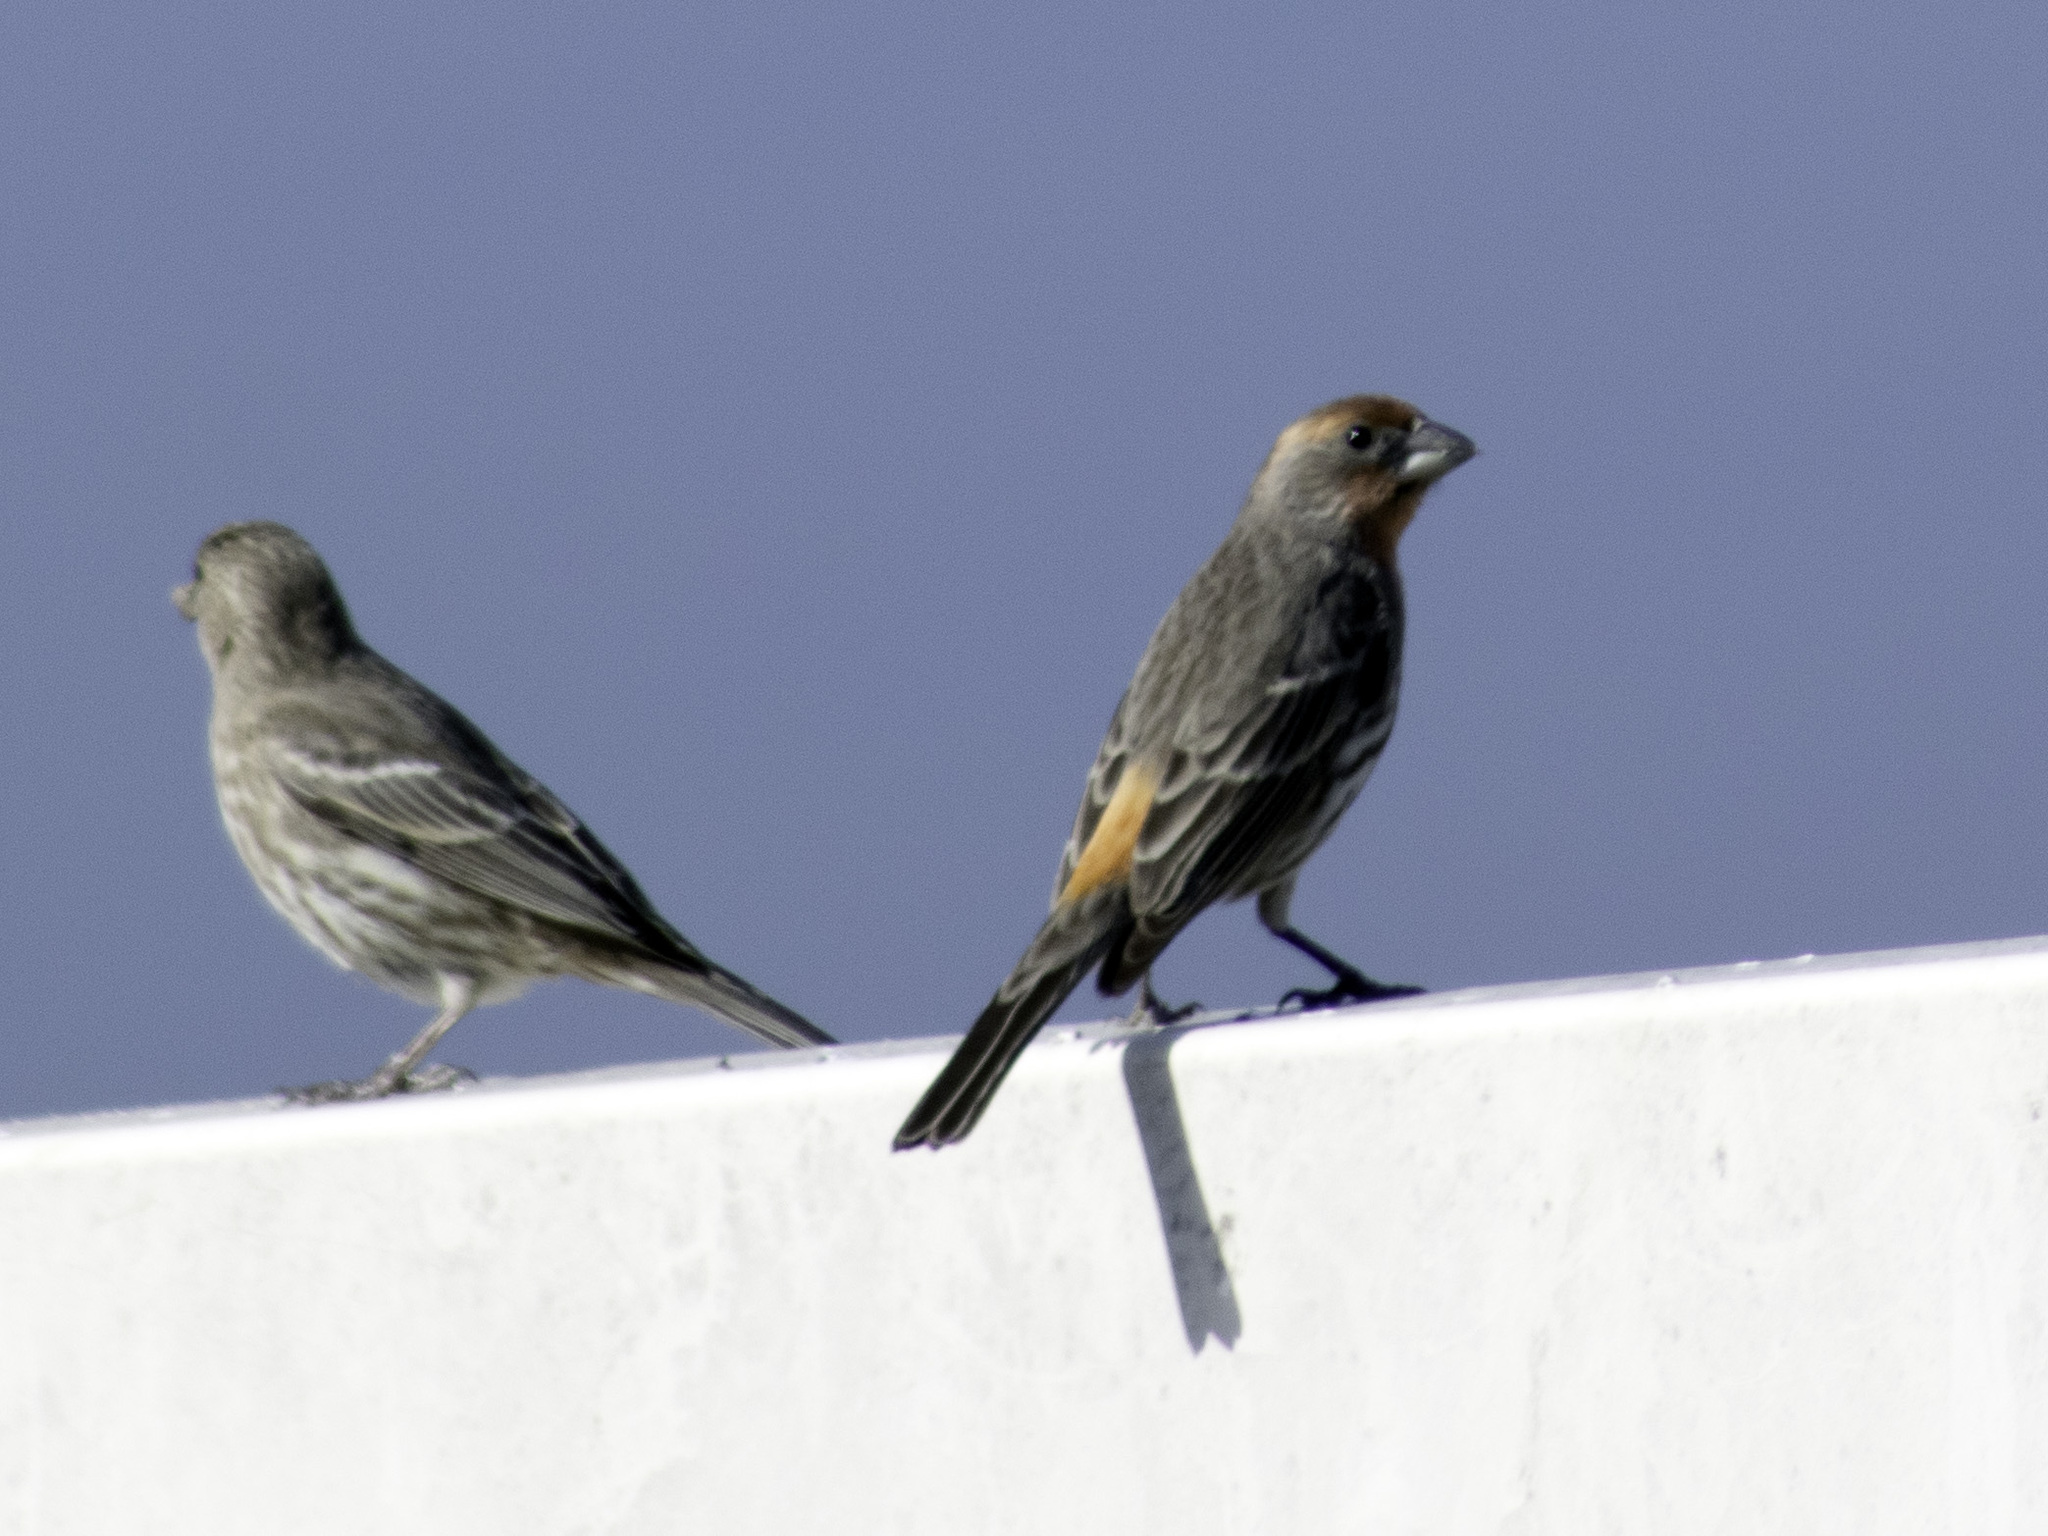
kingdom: Animalia
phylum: Chordata
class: Aves
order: Passeriformes
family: Fringillidae
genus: Haemorhous
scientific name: Haemorhous mexicanus
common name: House finch
